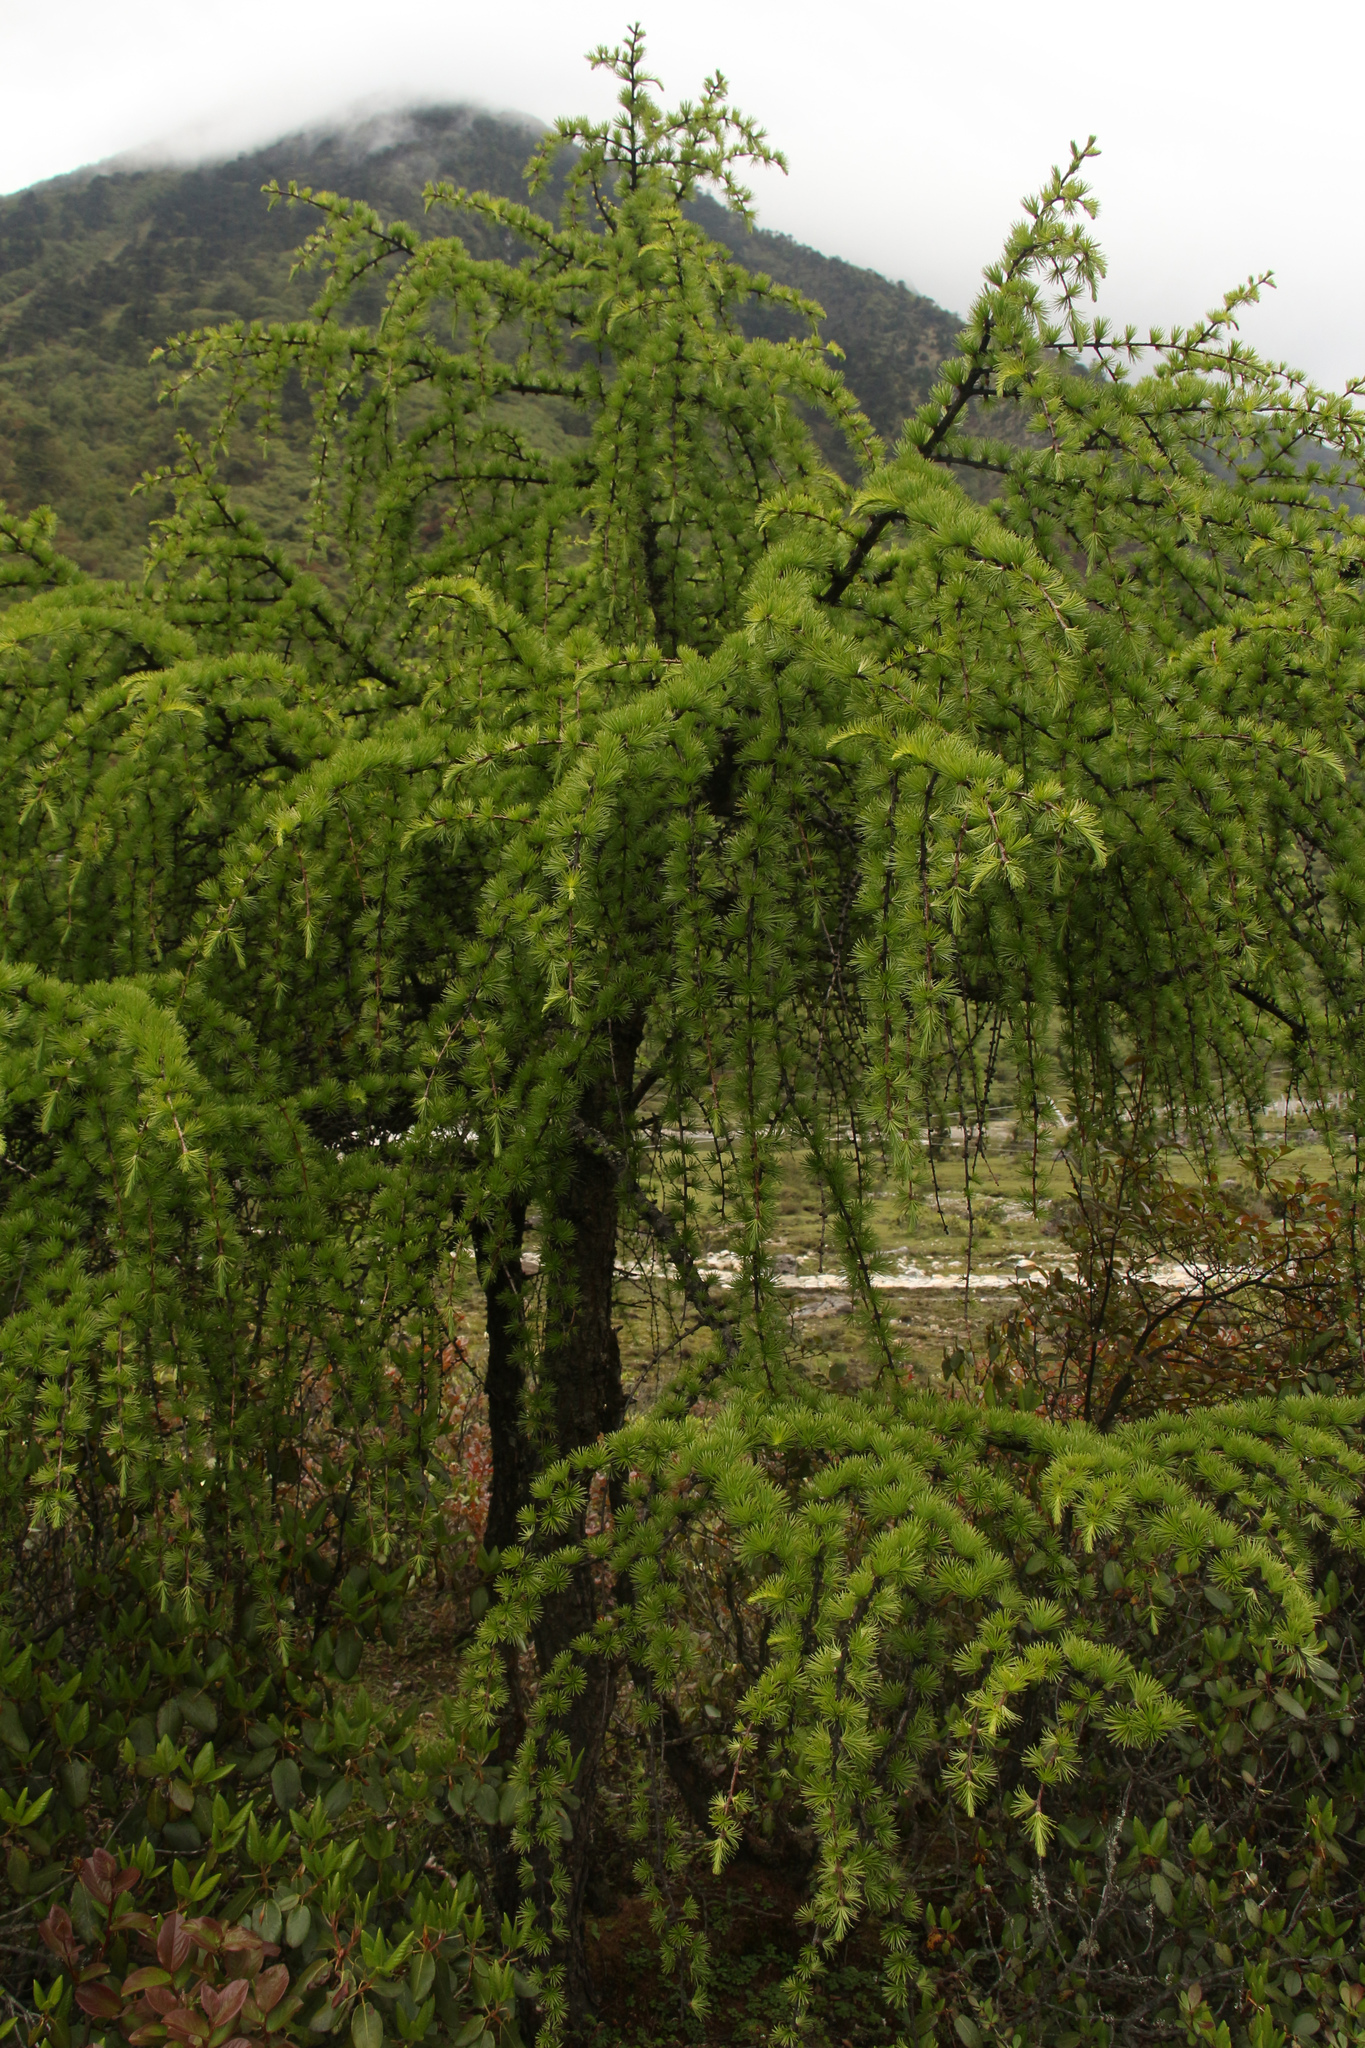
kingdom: Plantae
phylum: Tracheophyta
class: Pinopsida
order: Pinales
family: Pinaceae
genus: Larix
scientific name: Larix griffithii
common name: Sikkim larch
